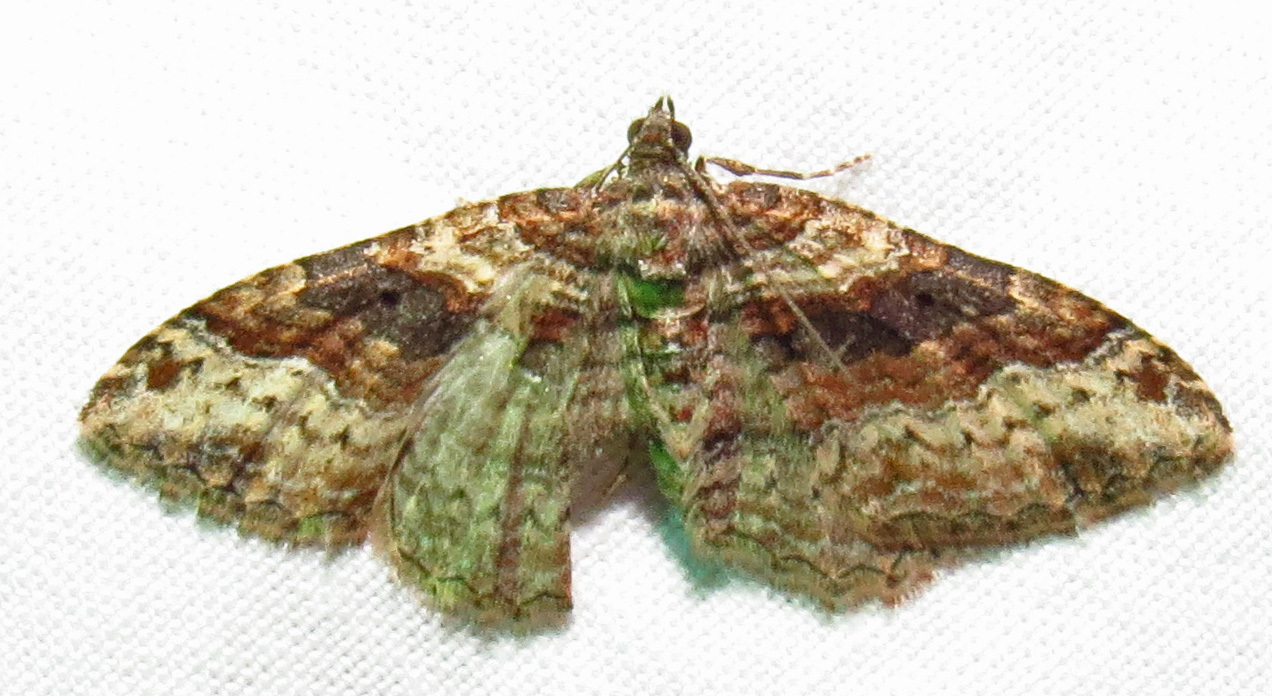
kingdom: Animalia
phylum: Arthropoda
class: Insecta
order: Lepidoptera
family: Geometridae
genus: Costaconvexa
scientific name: Costaconvexa centrostrigaria
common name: Bent-line carpet
